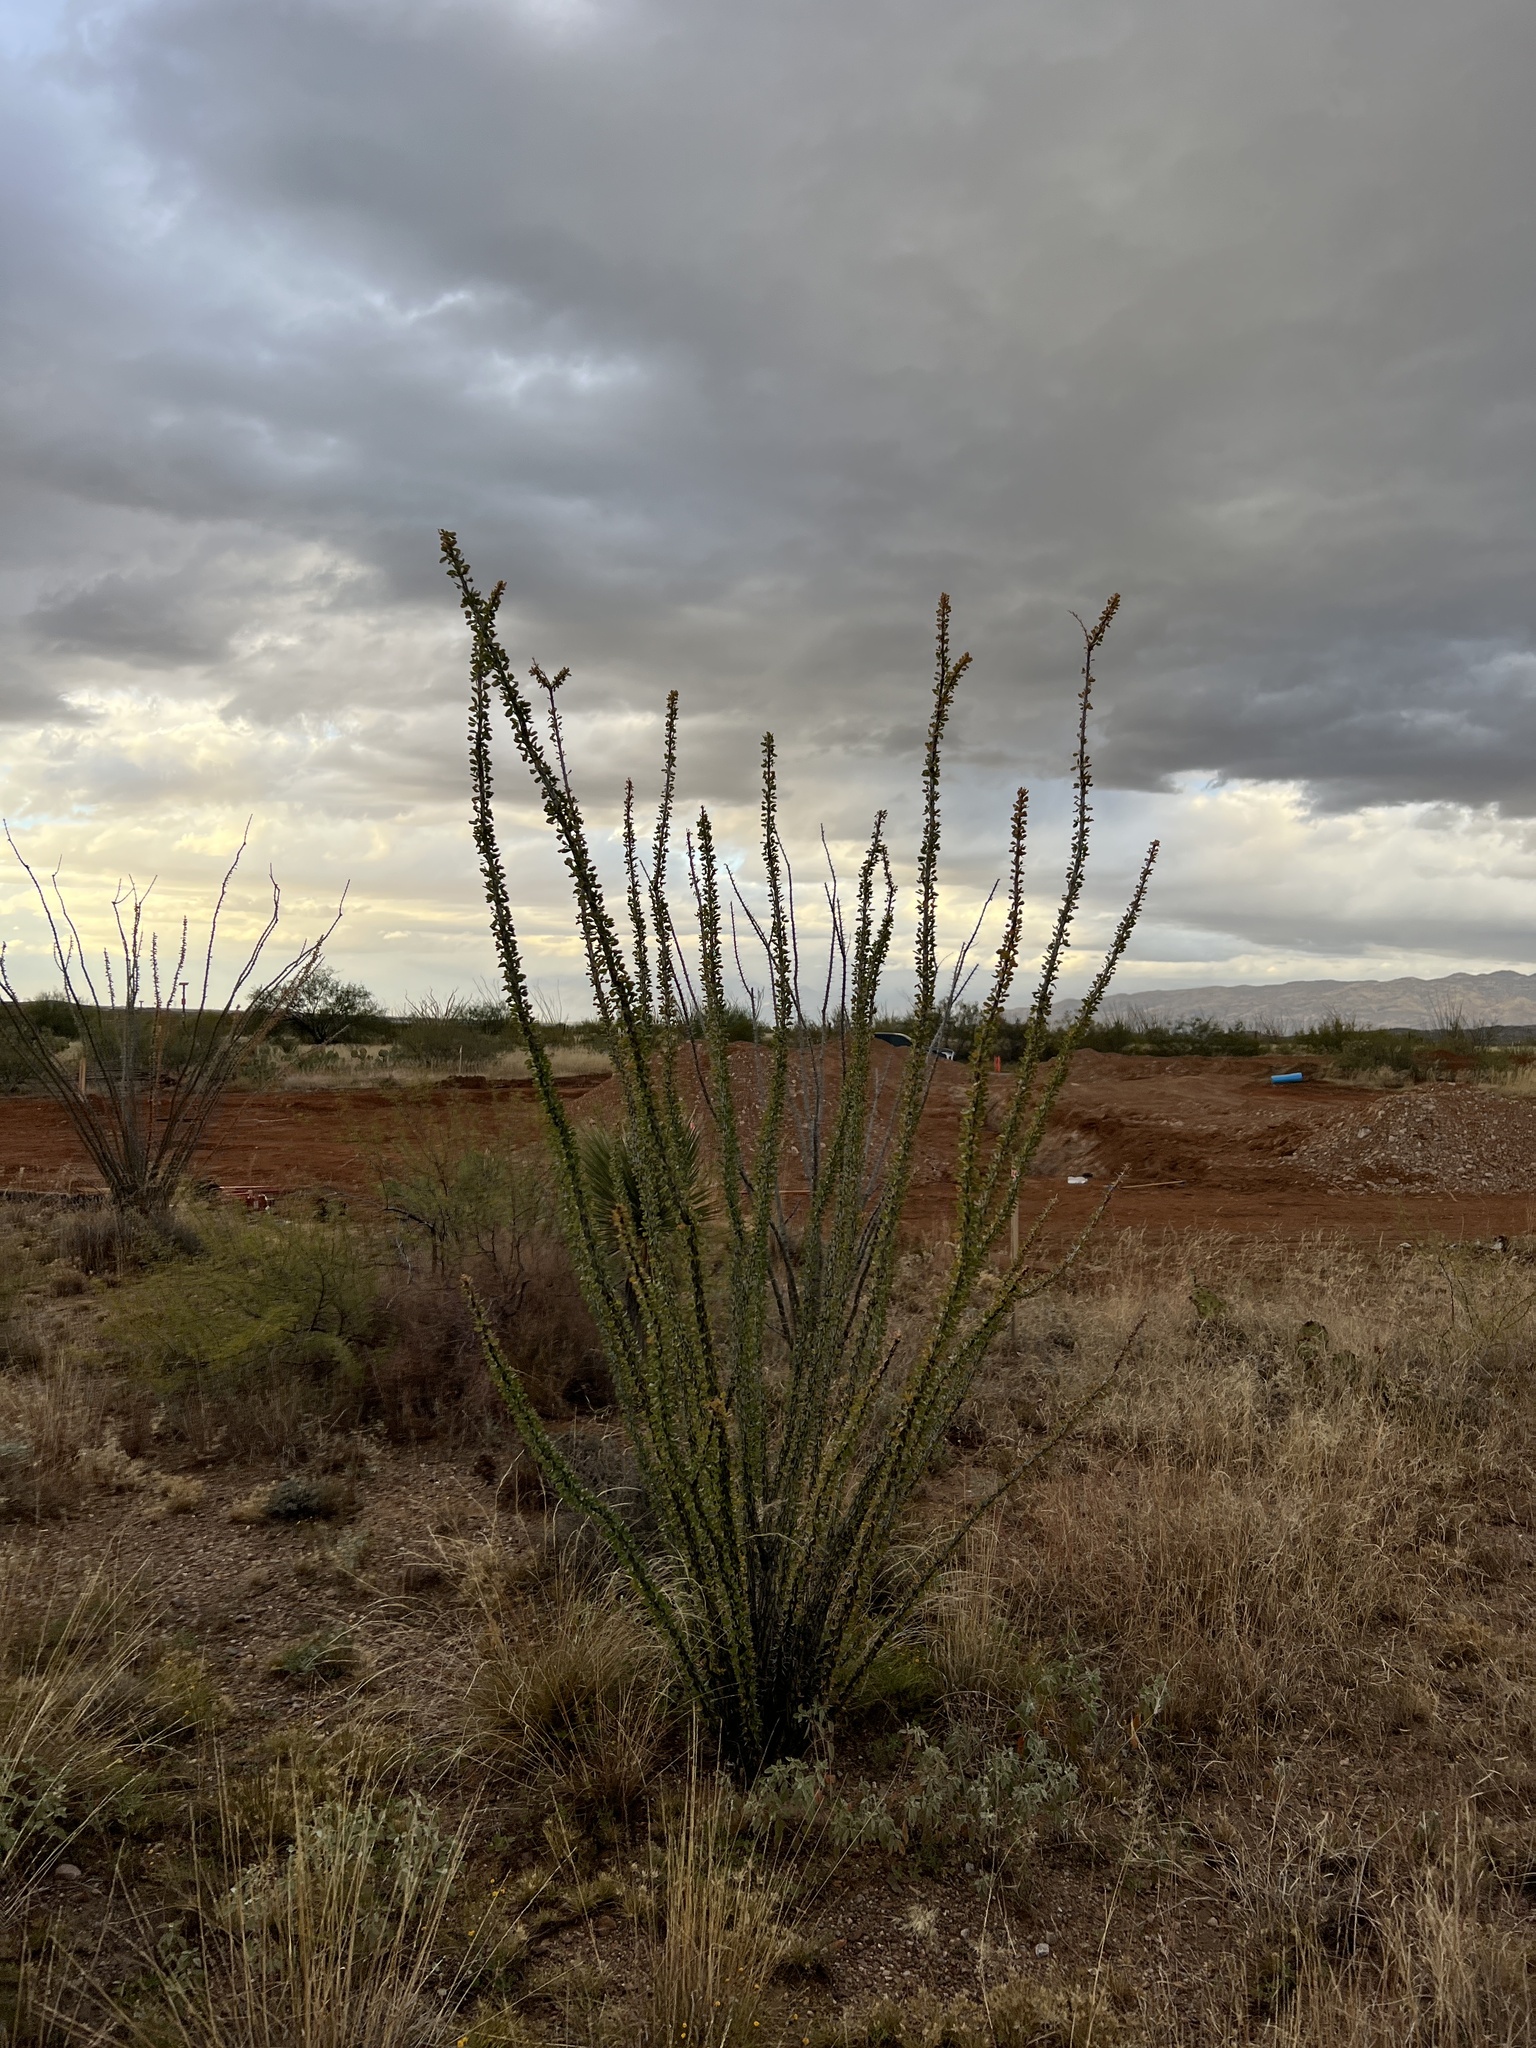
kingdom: Plantae
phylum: Tracheophyta
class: Magnoliopsida
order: Ericales
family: Fouquieriaceae
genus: Fouquieria
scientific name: Fouquieria splendens
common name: Vine-cactus
